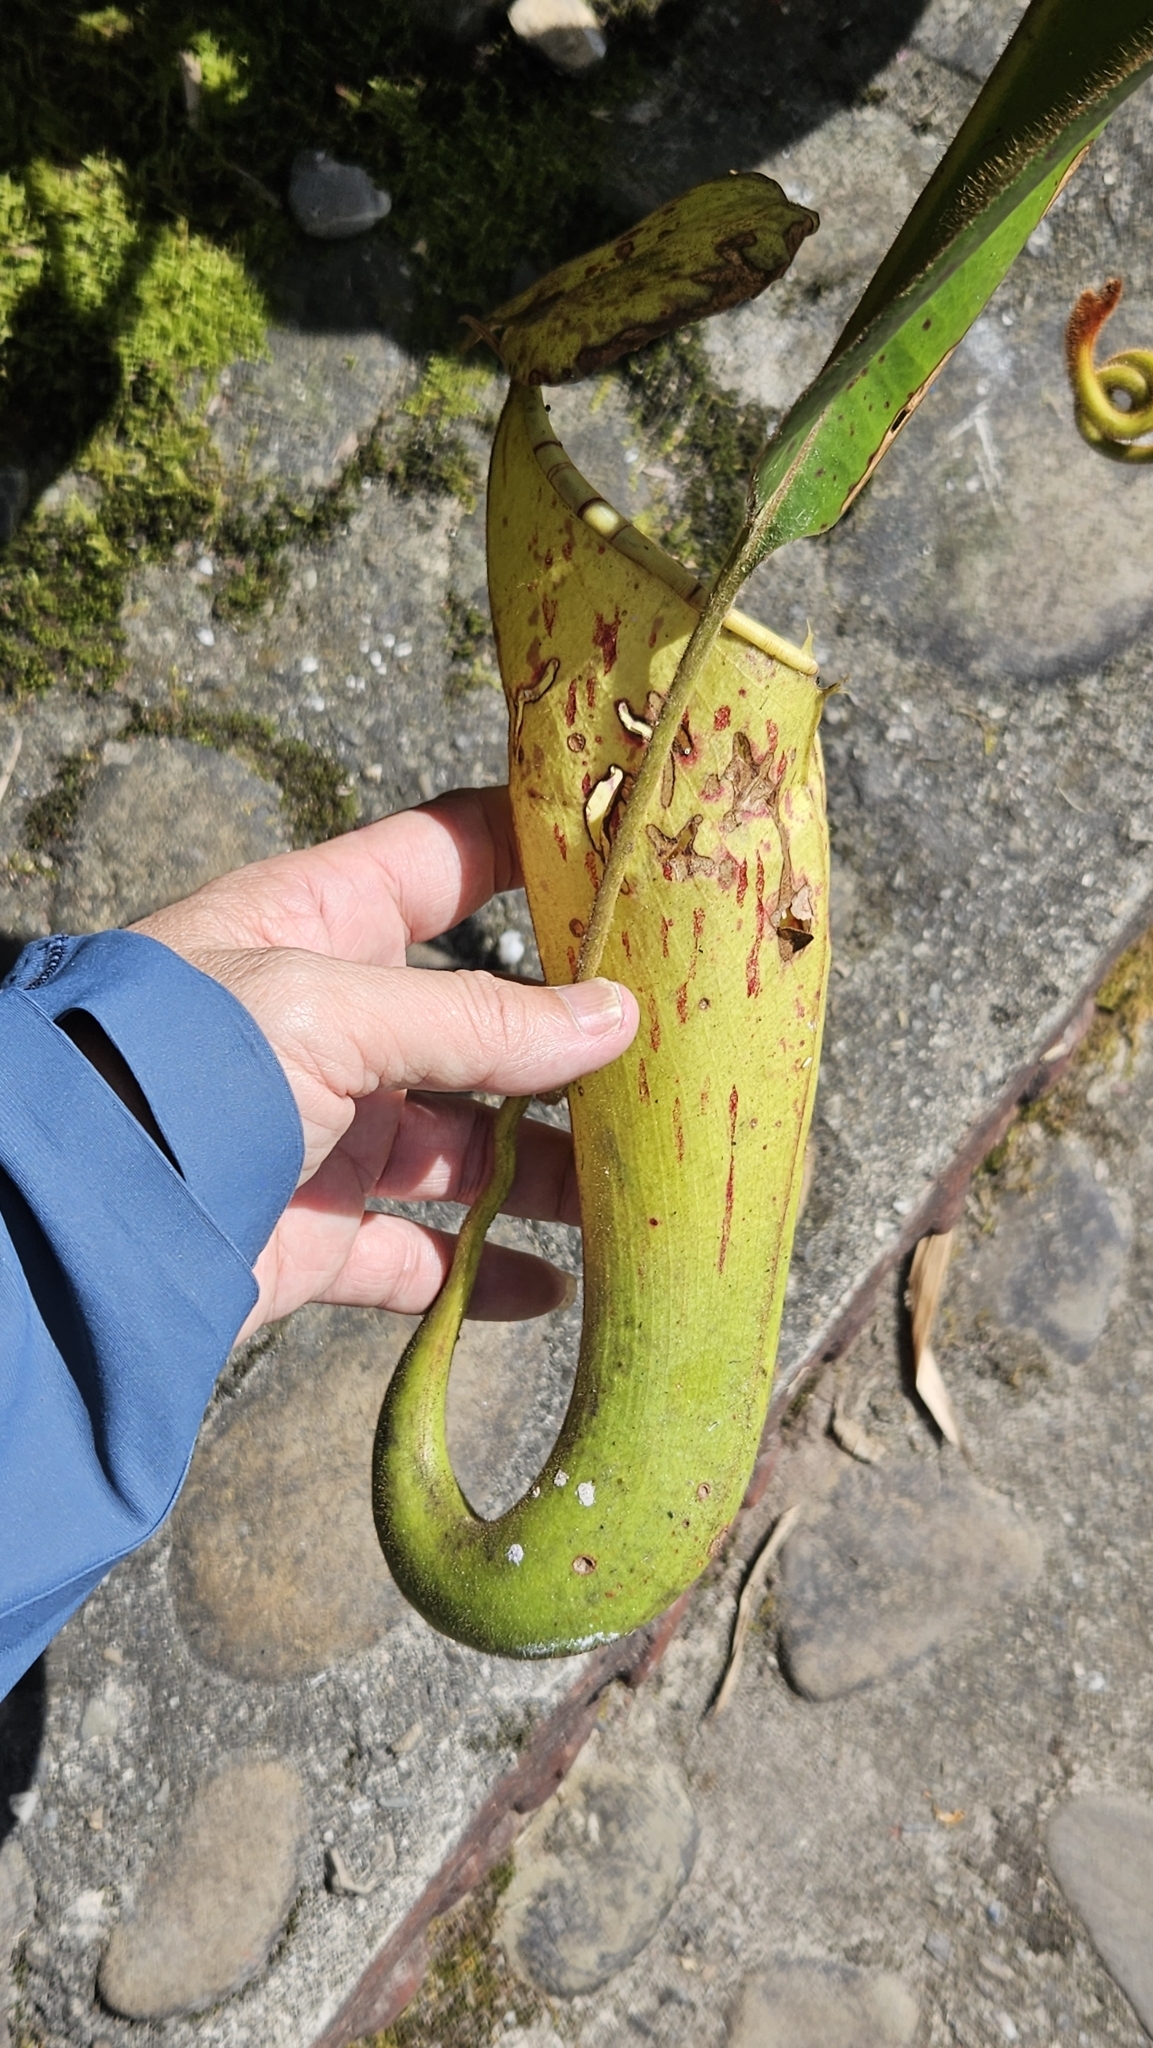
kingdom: Plantae
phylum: Tracheophyta
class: Magnoliopsida
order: Caryophyllales
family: Nepenthaceae
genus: Nepenthes
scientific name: Nepenthes chaniana
